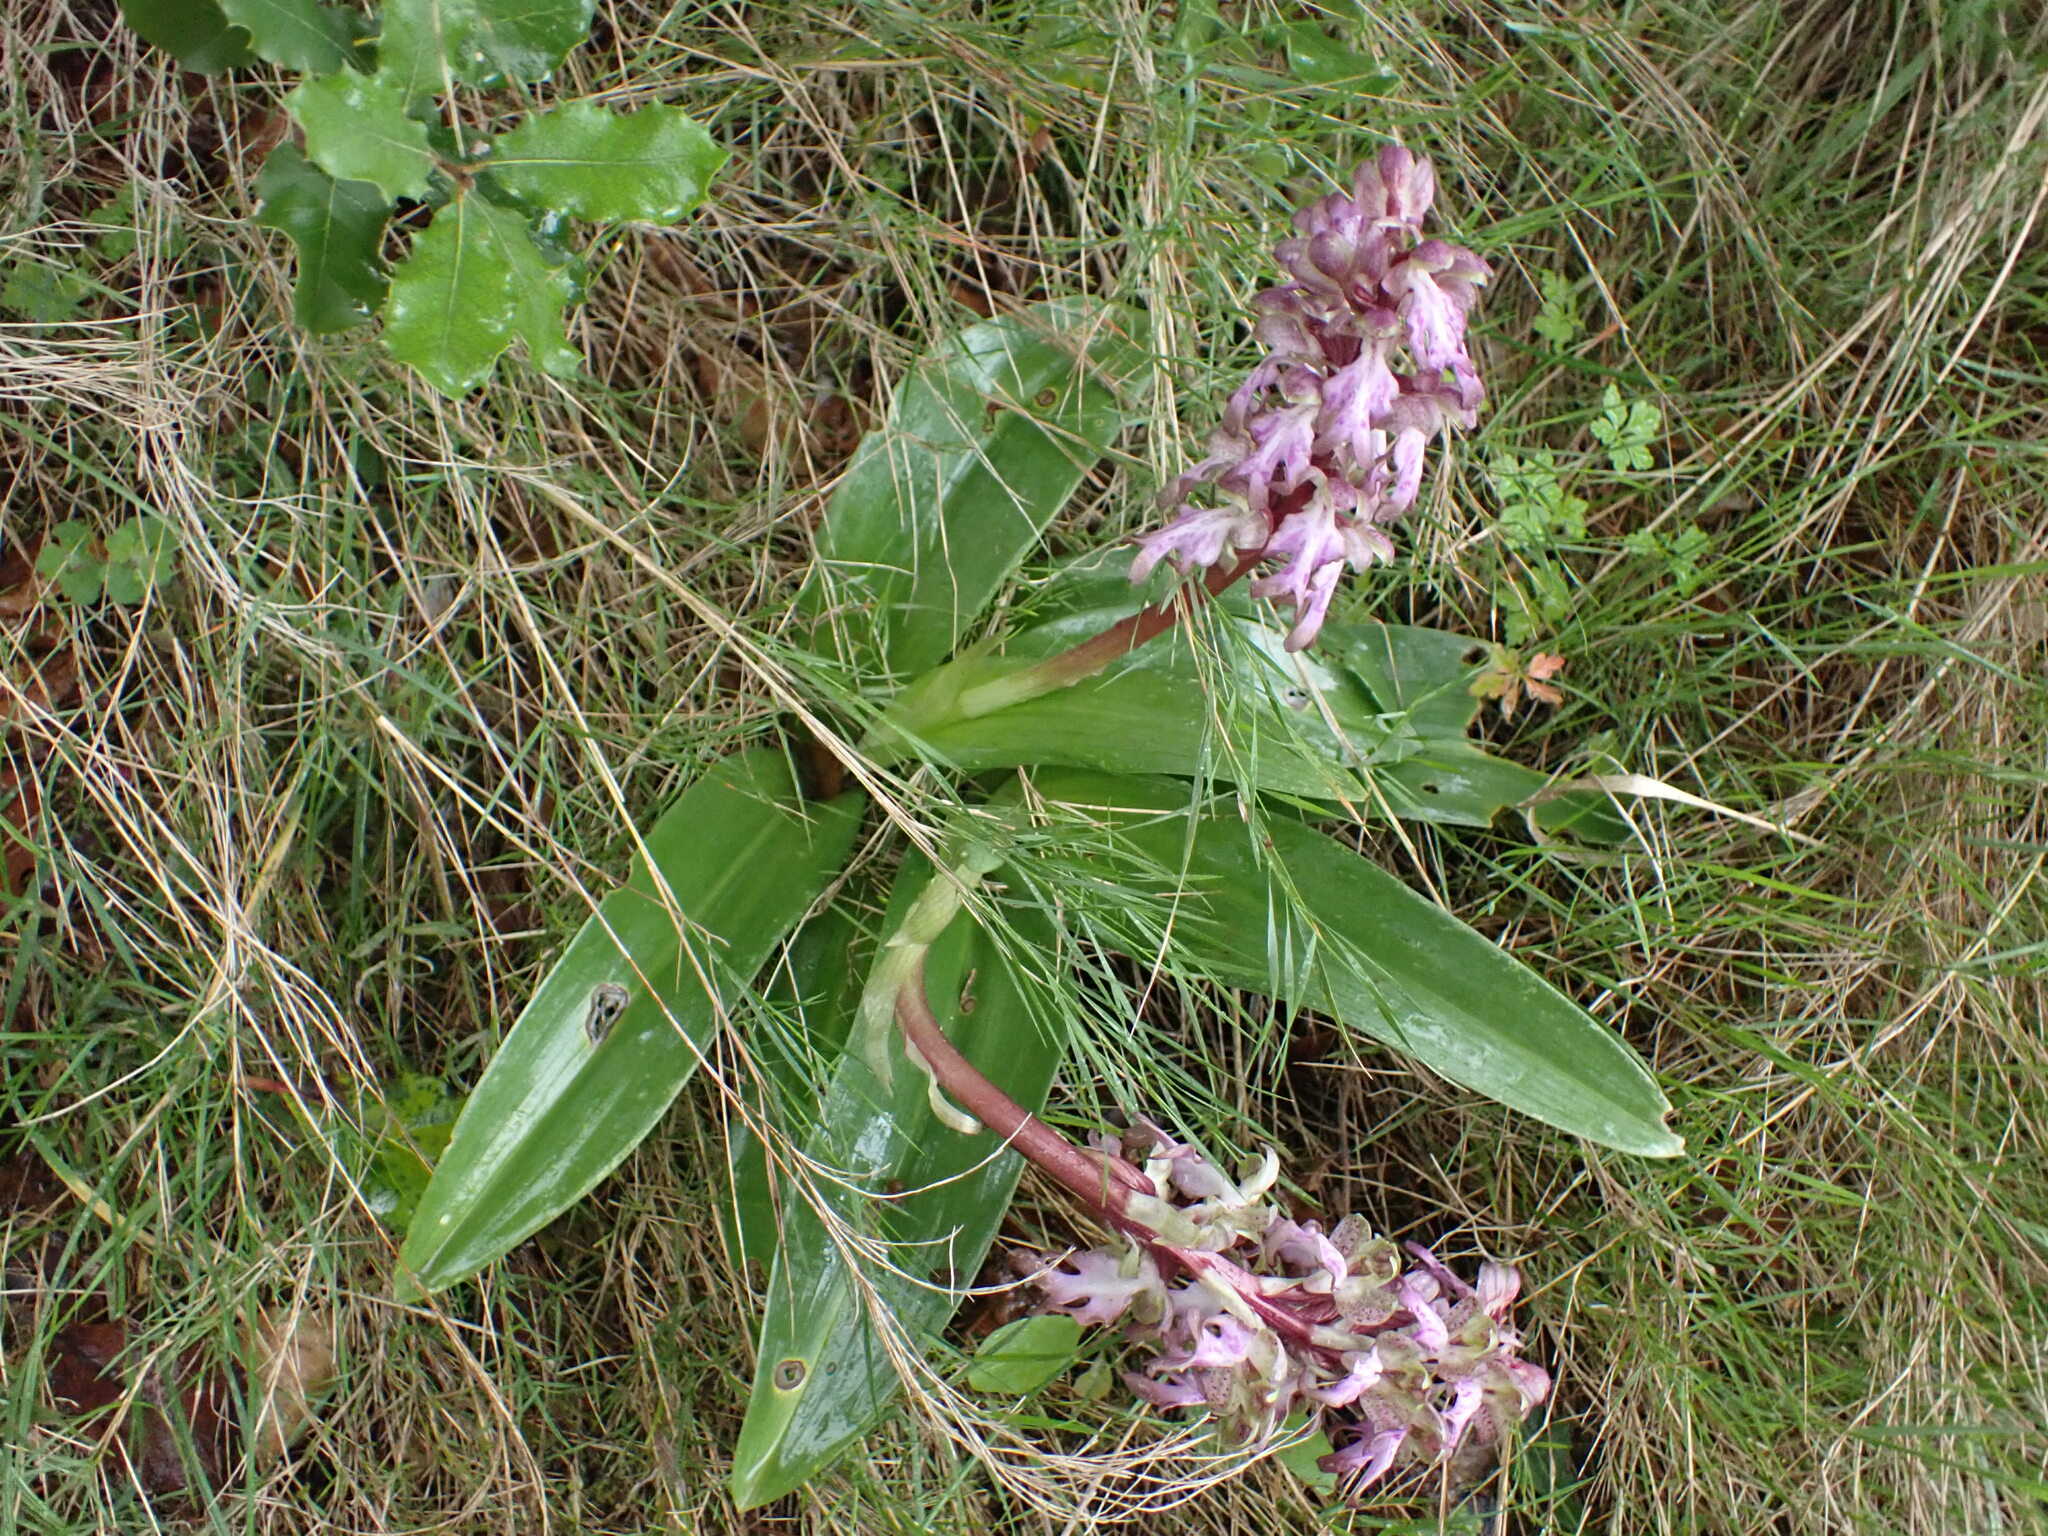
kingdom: Plantae
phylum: Tracheophyta
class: Liliopsida
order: Asparagales
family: Orchidaceae
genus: Himantoglossum
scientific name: Himantoglossum robertianum
